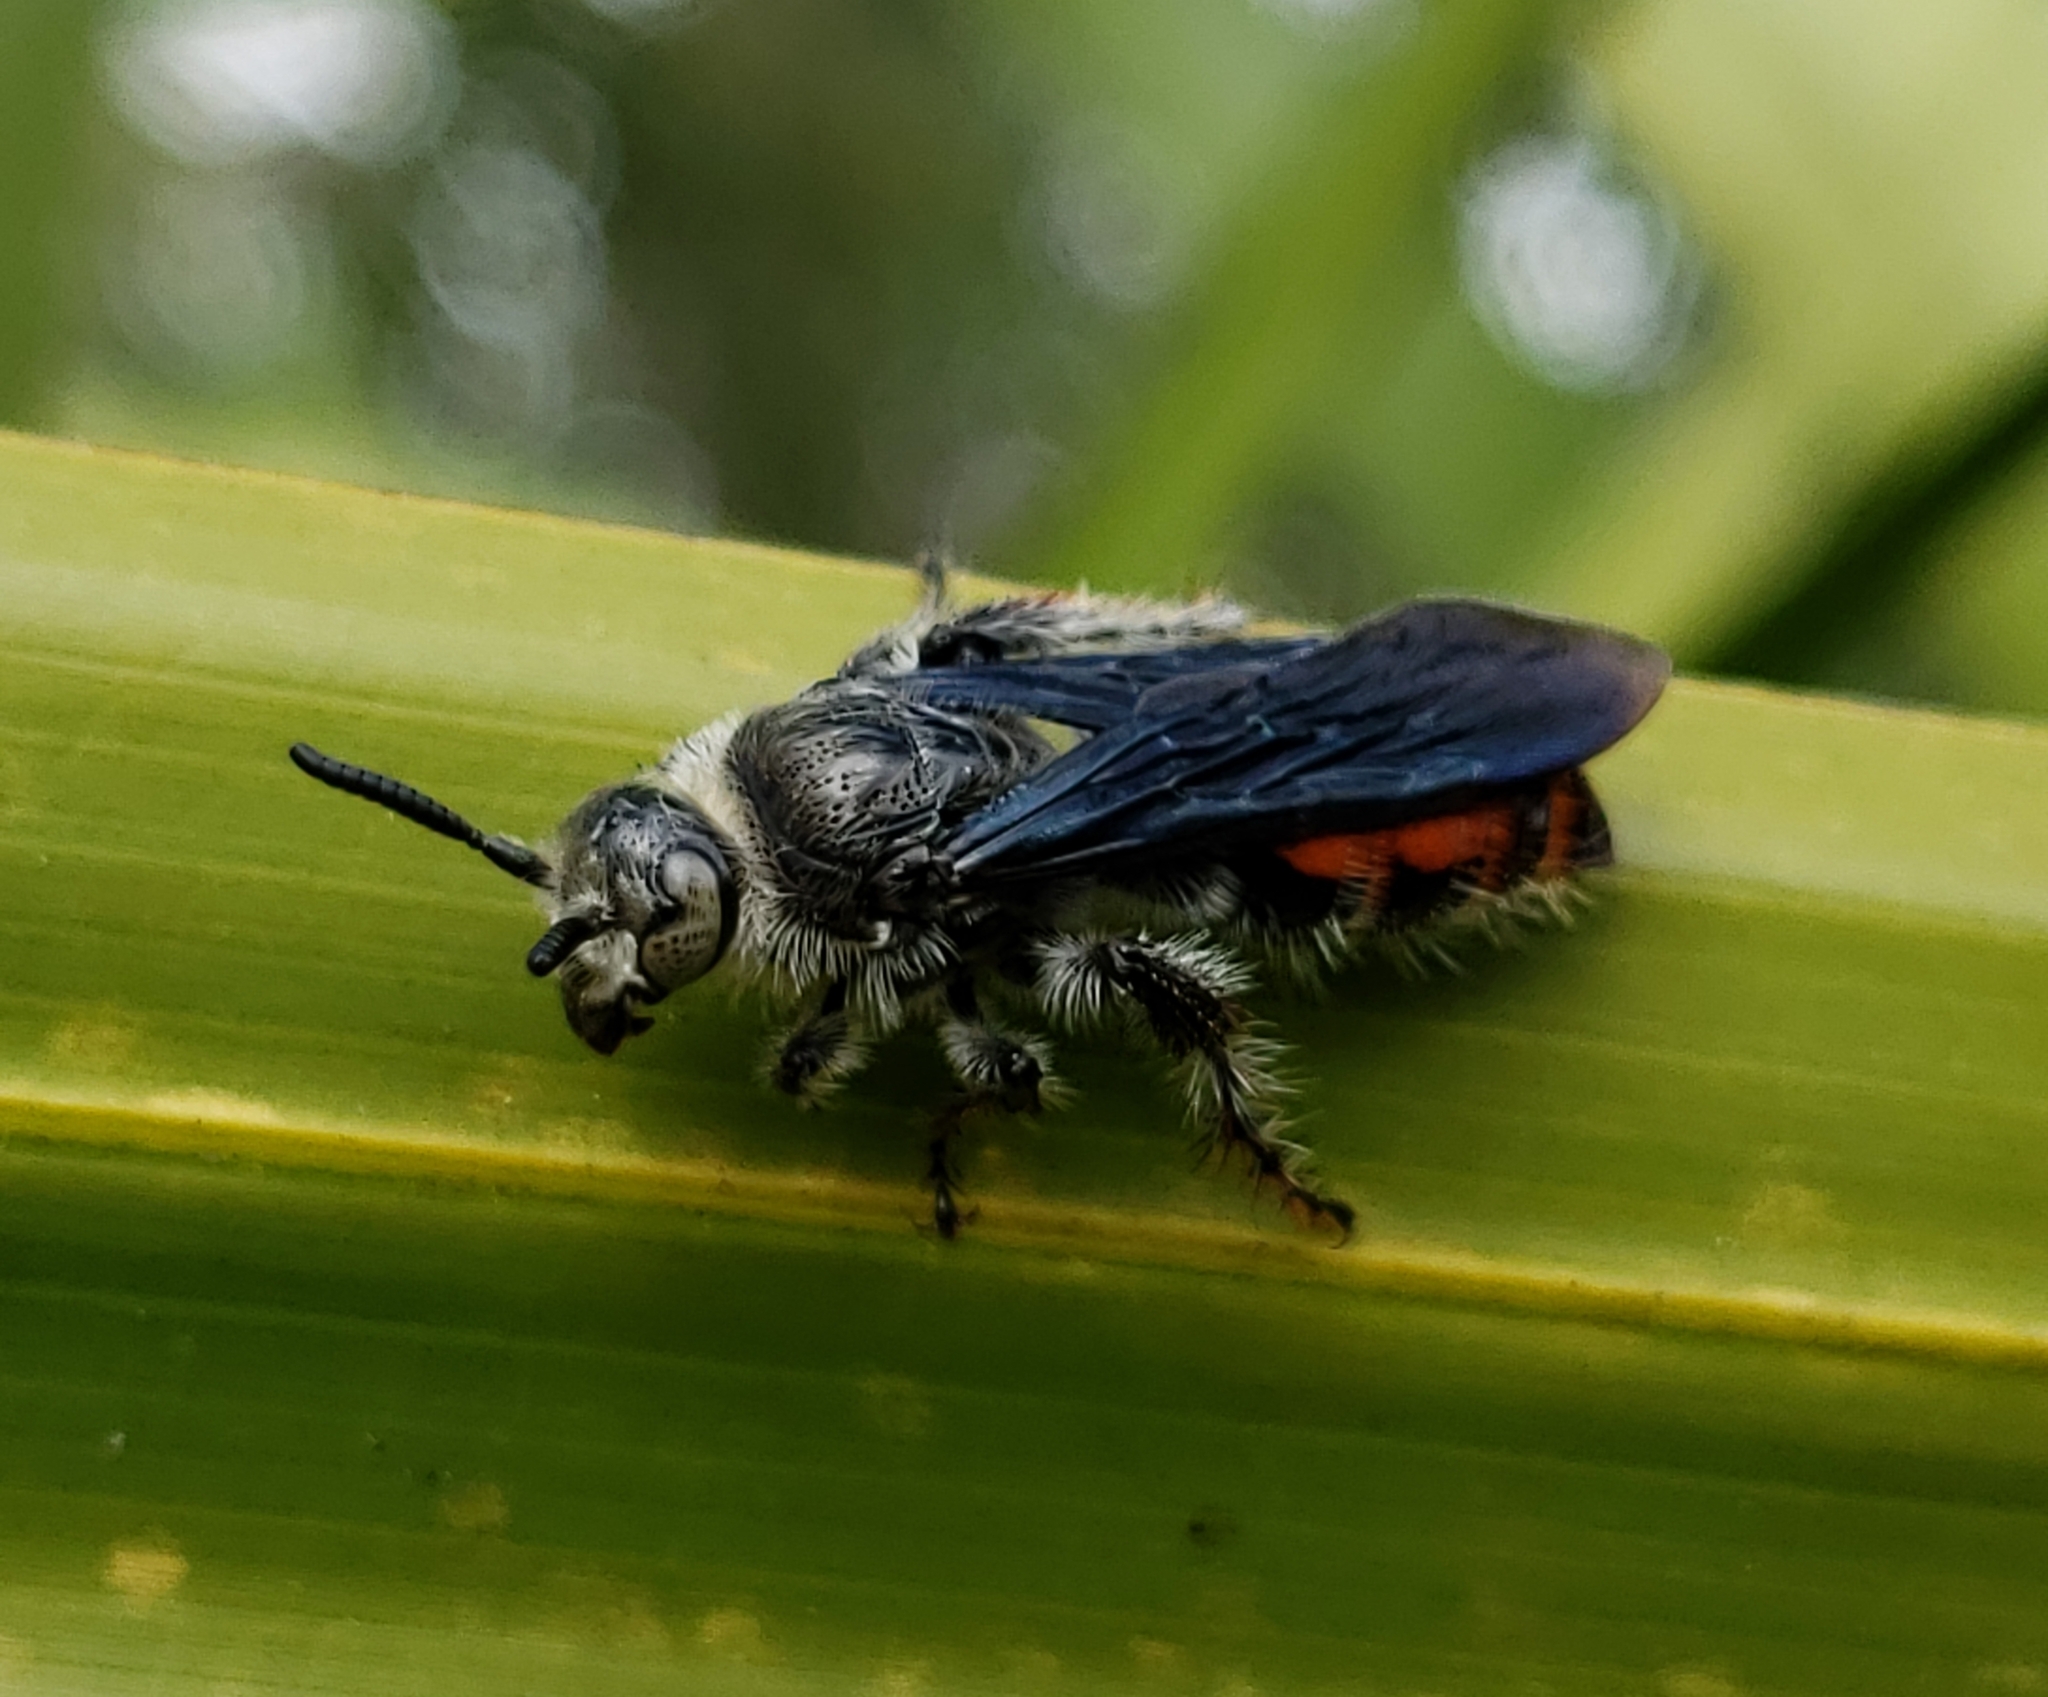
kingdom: Animalia
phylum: Arthropoda
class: Insecta
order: Hymenoptera
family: Scoliidae
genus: Dielis
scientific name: Dielis dorsata
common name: Scoliid wasp
